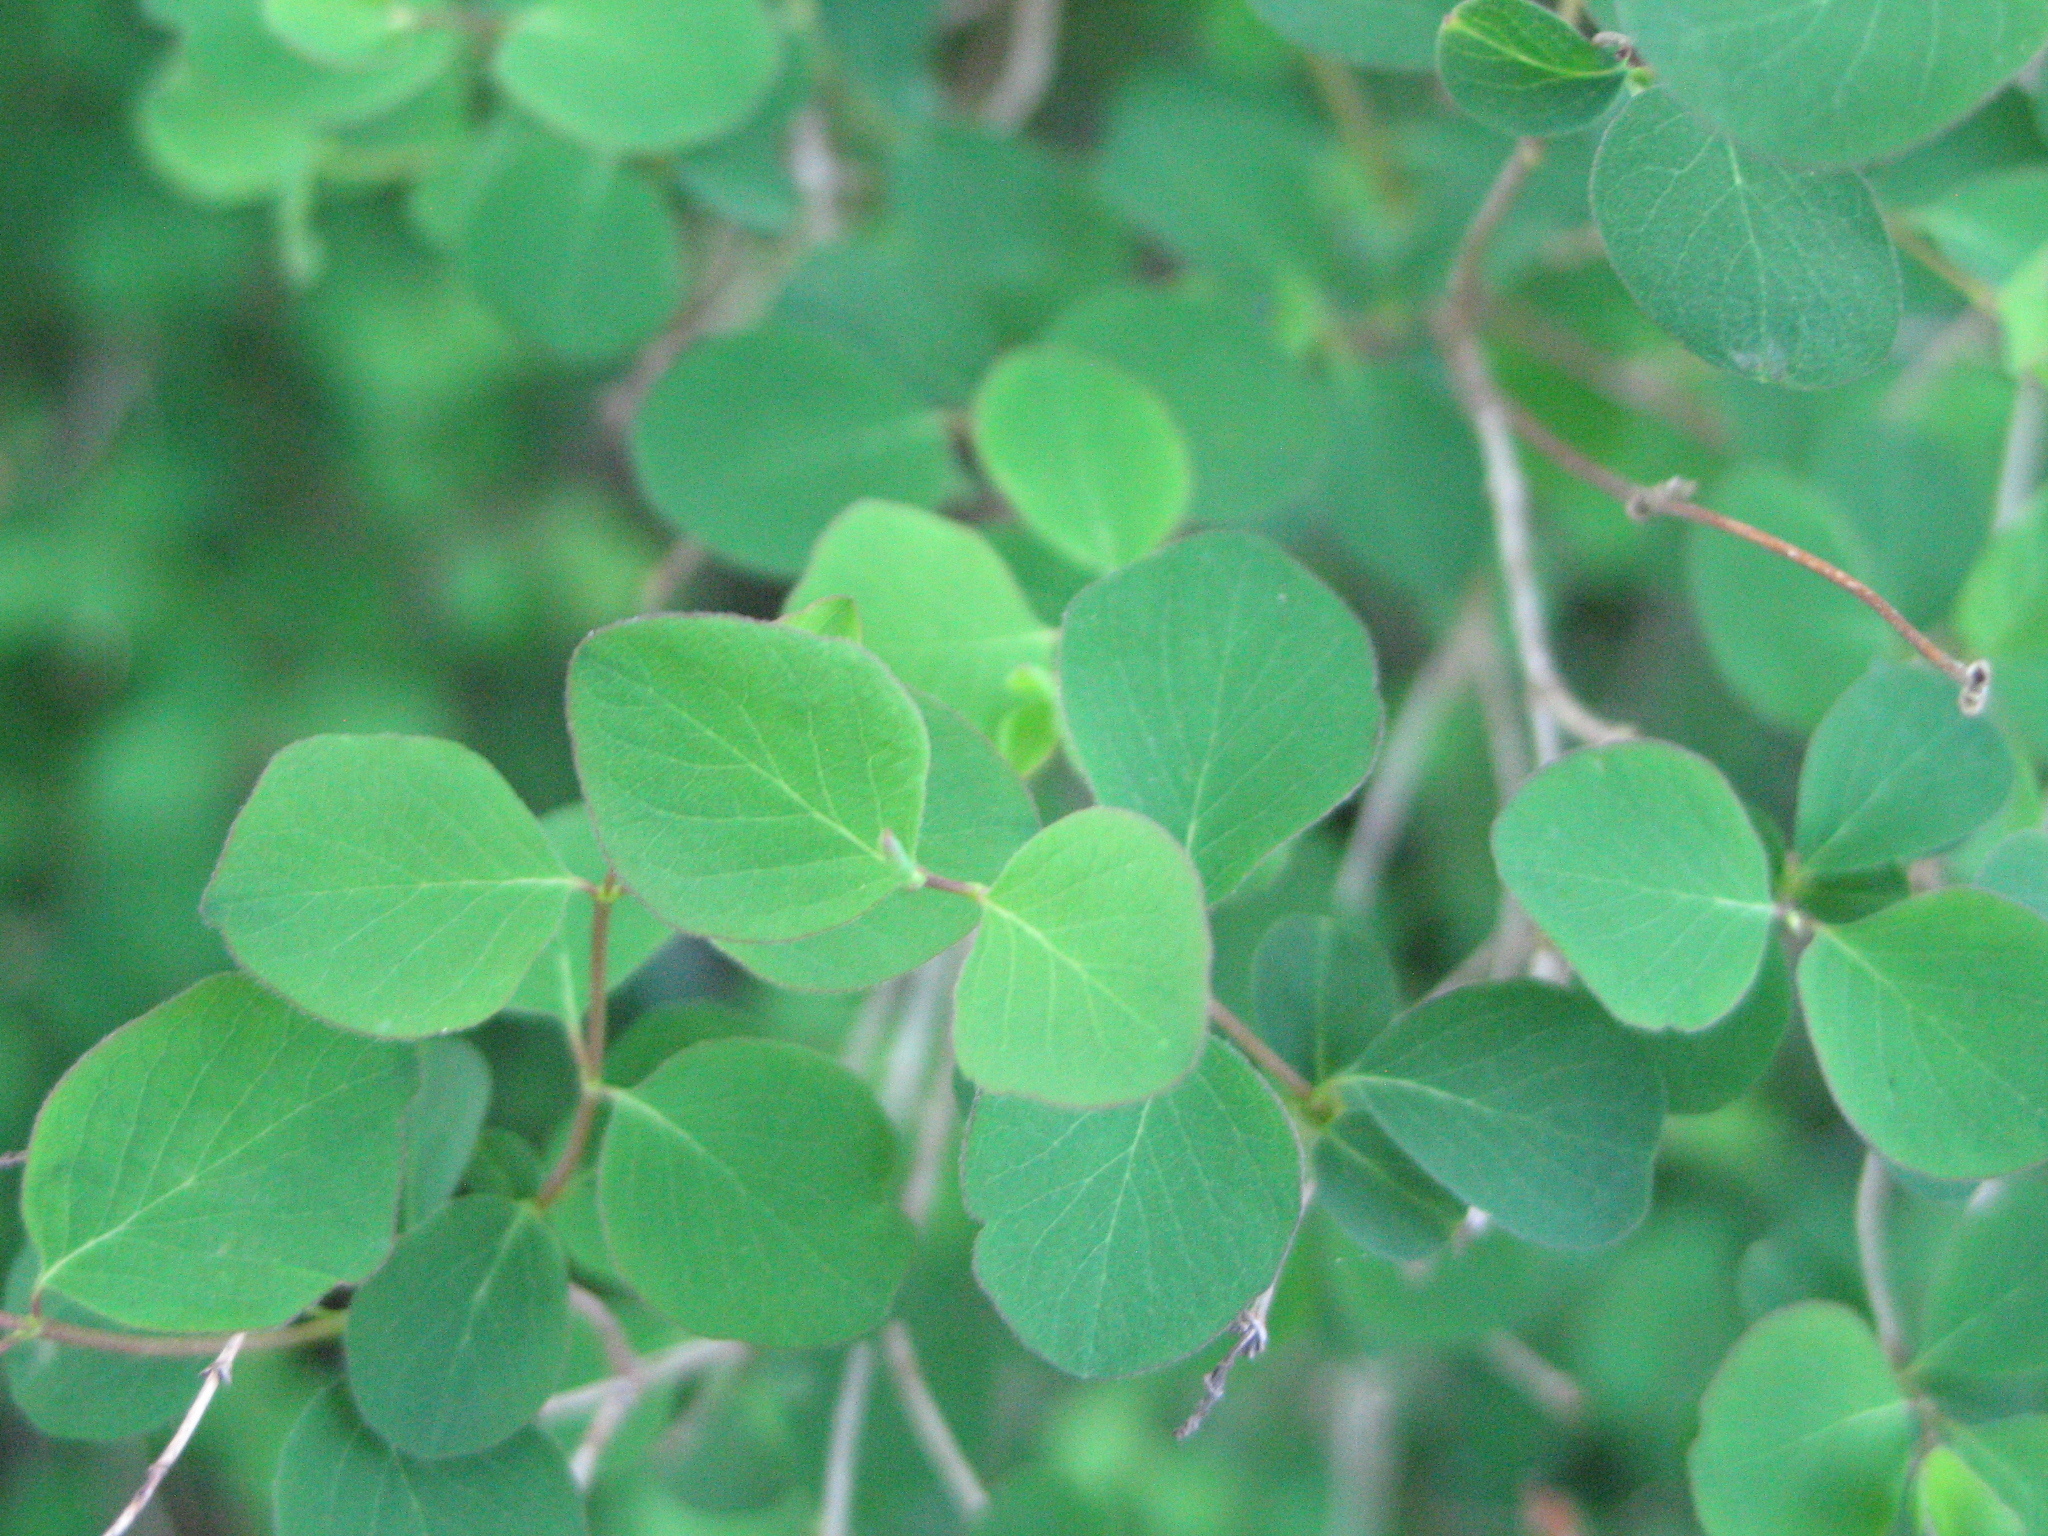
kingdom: Plantae
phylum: Tracheophyta
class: Magnoliopsida
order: Dipsacales
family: Caprifoliaceae
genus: Symphoricarpos
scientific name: Symphoricarpos albus
